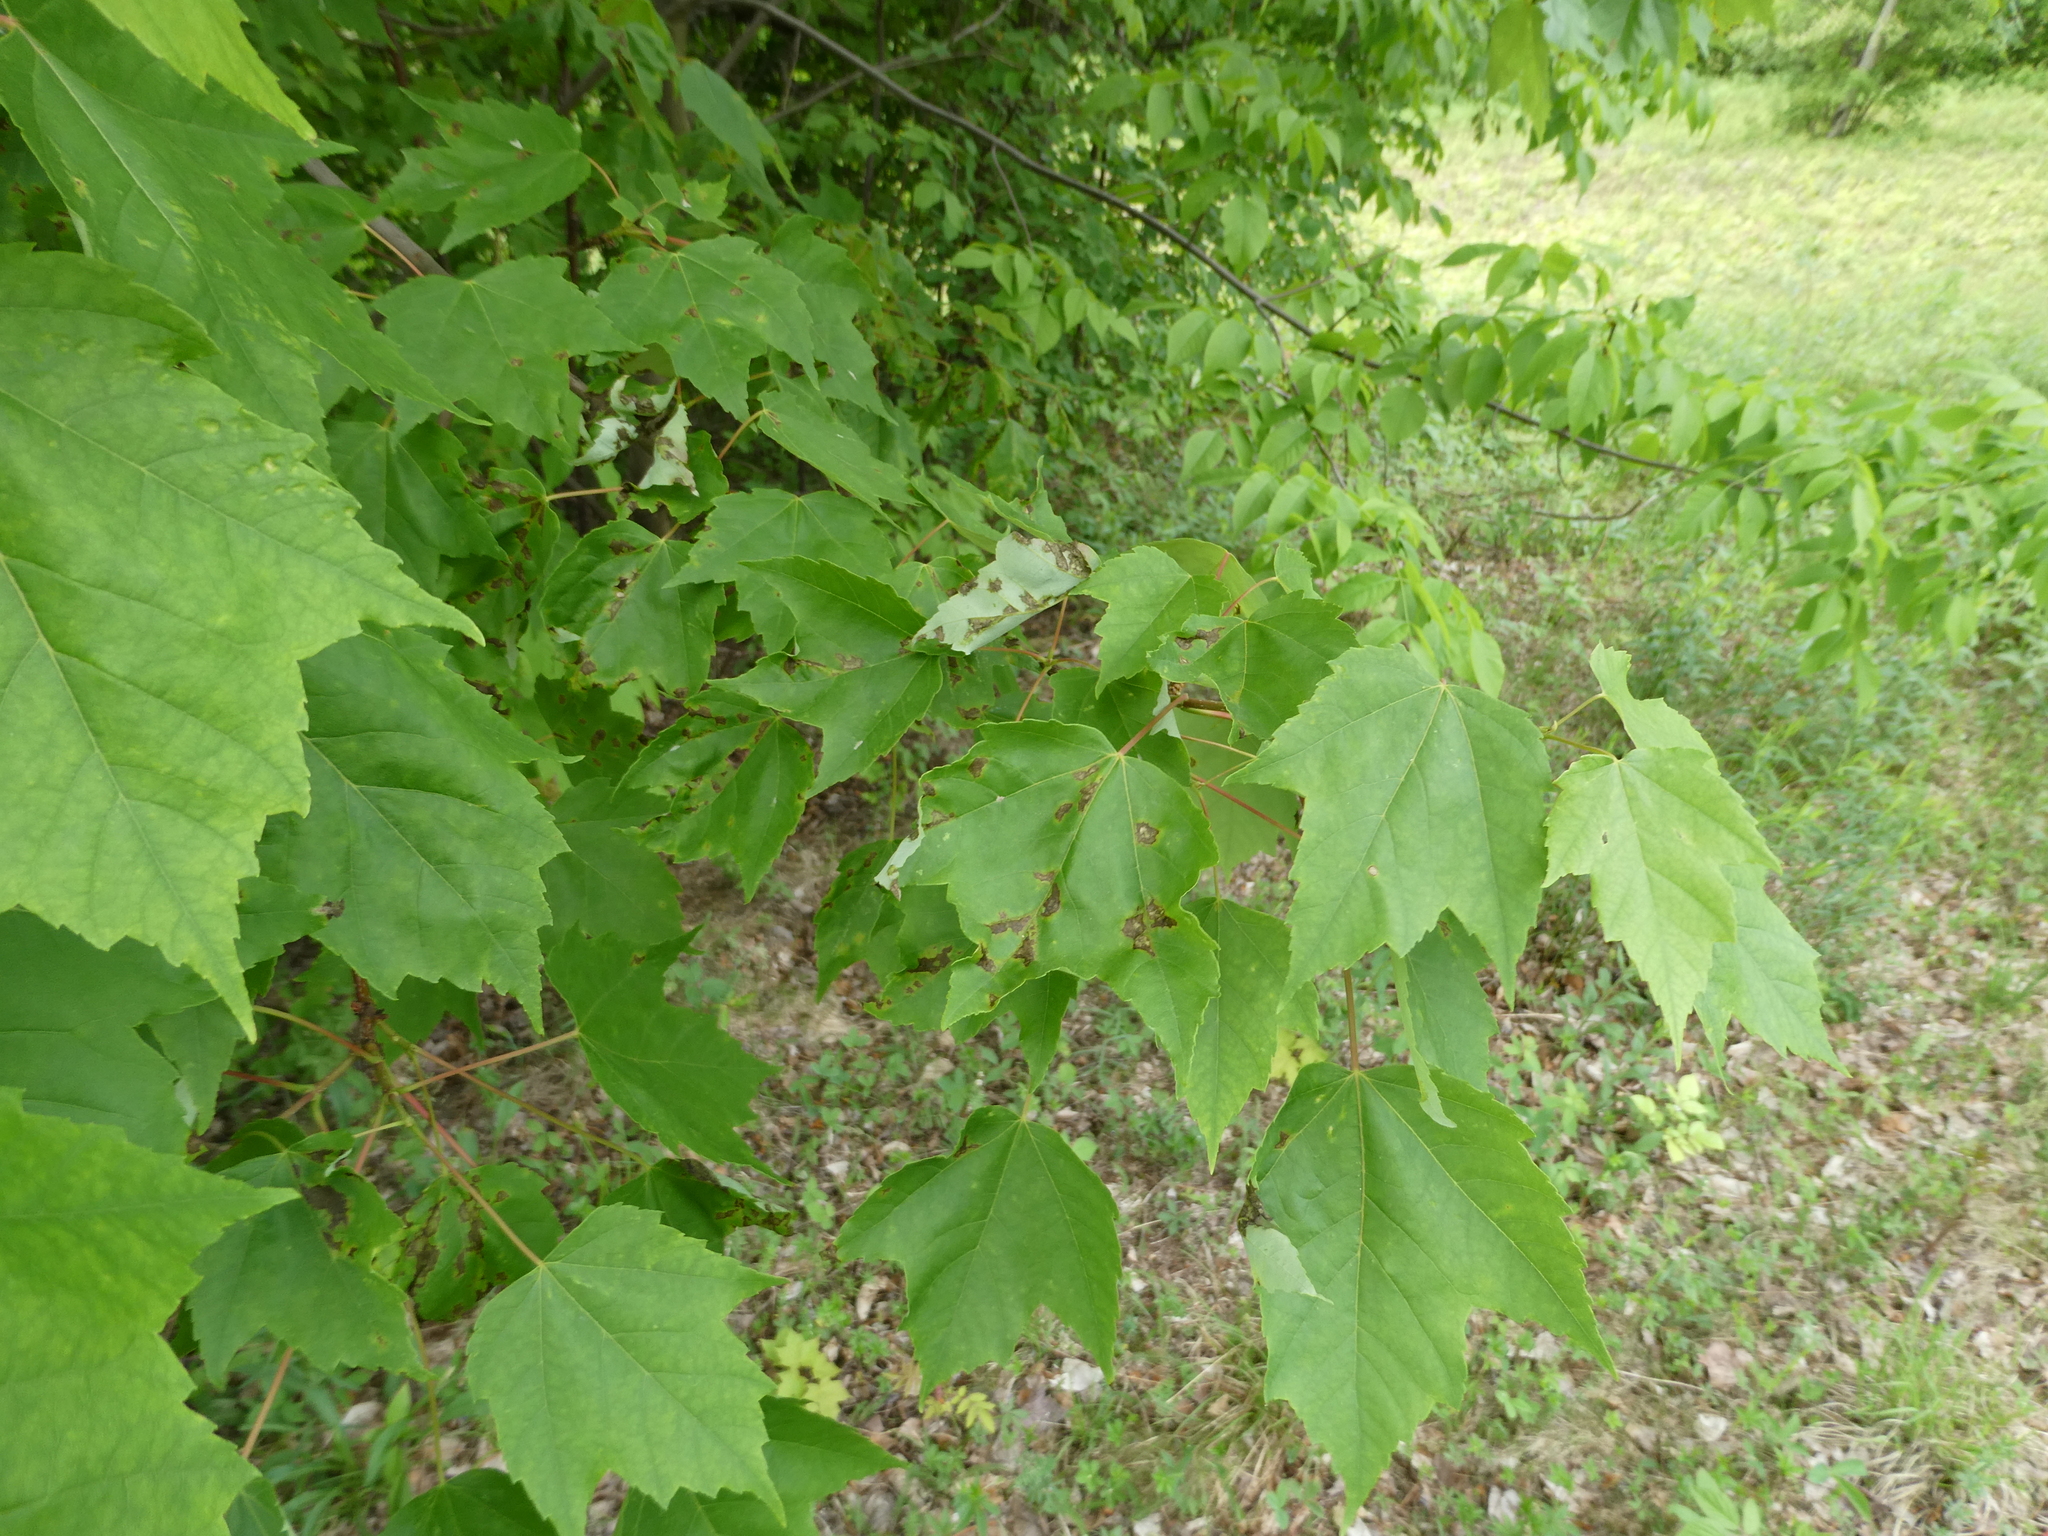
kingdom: Plantae
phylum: Tracheophyta
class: Magnoliopsida
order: Sapindales
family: Sapindaceae
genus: Acer
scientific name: Acer rubrum
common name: Red maple
